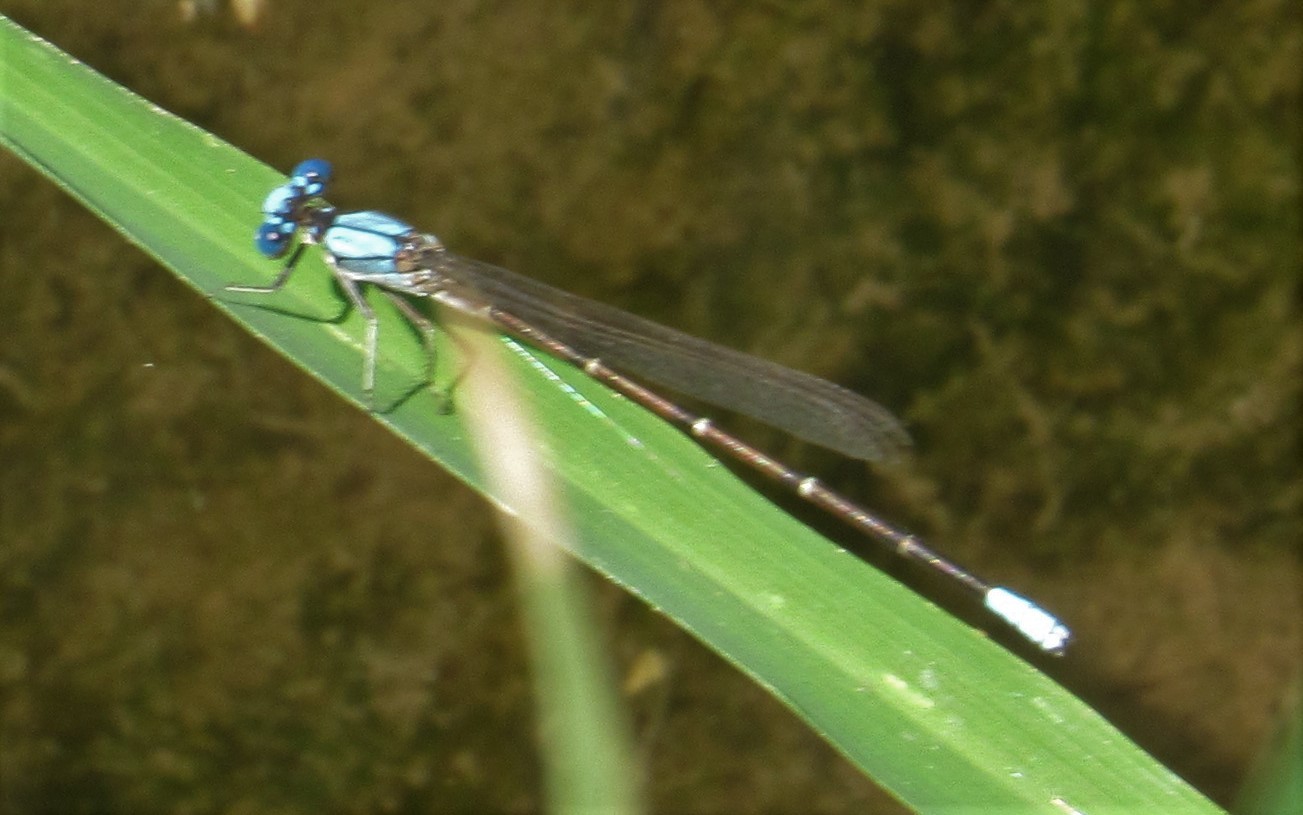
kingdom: Animalia
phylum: Arthropoda
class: Insecta
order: Odonata
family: Coenagrionidae
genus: Argia
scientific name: Argia apicalis
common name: Blue-fronted dancer
